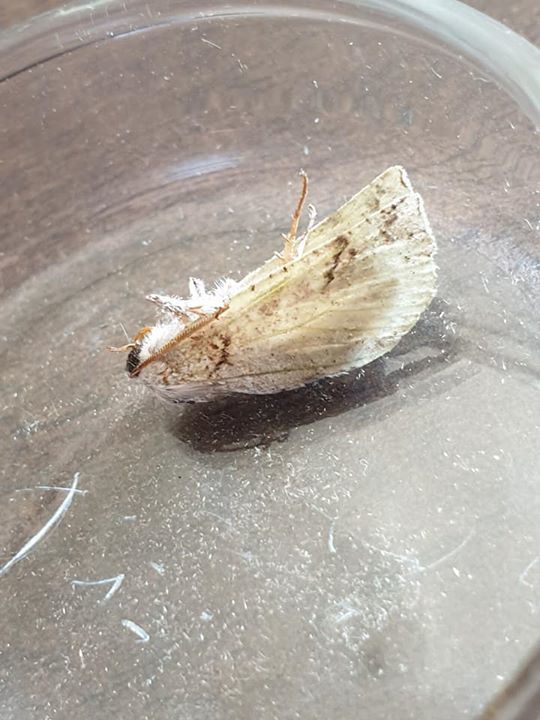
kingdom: Animalia
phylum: Arthropoda
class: Insecta
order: Lepidoptera
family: Geometridae
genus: Declana
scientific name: Declana niveata
